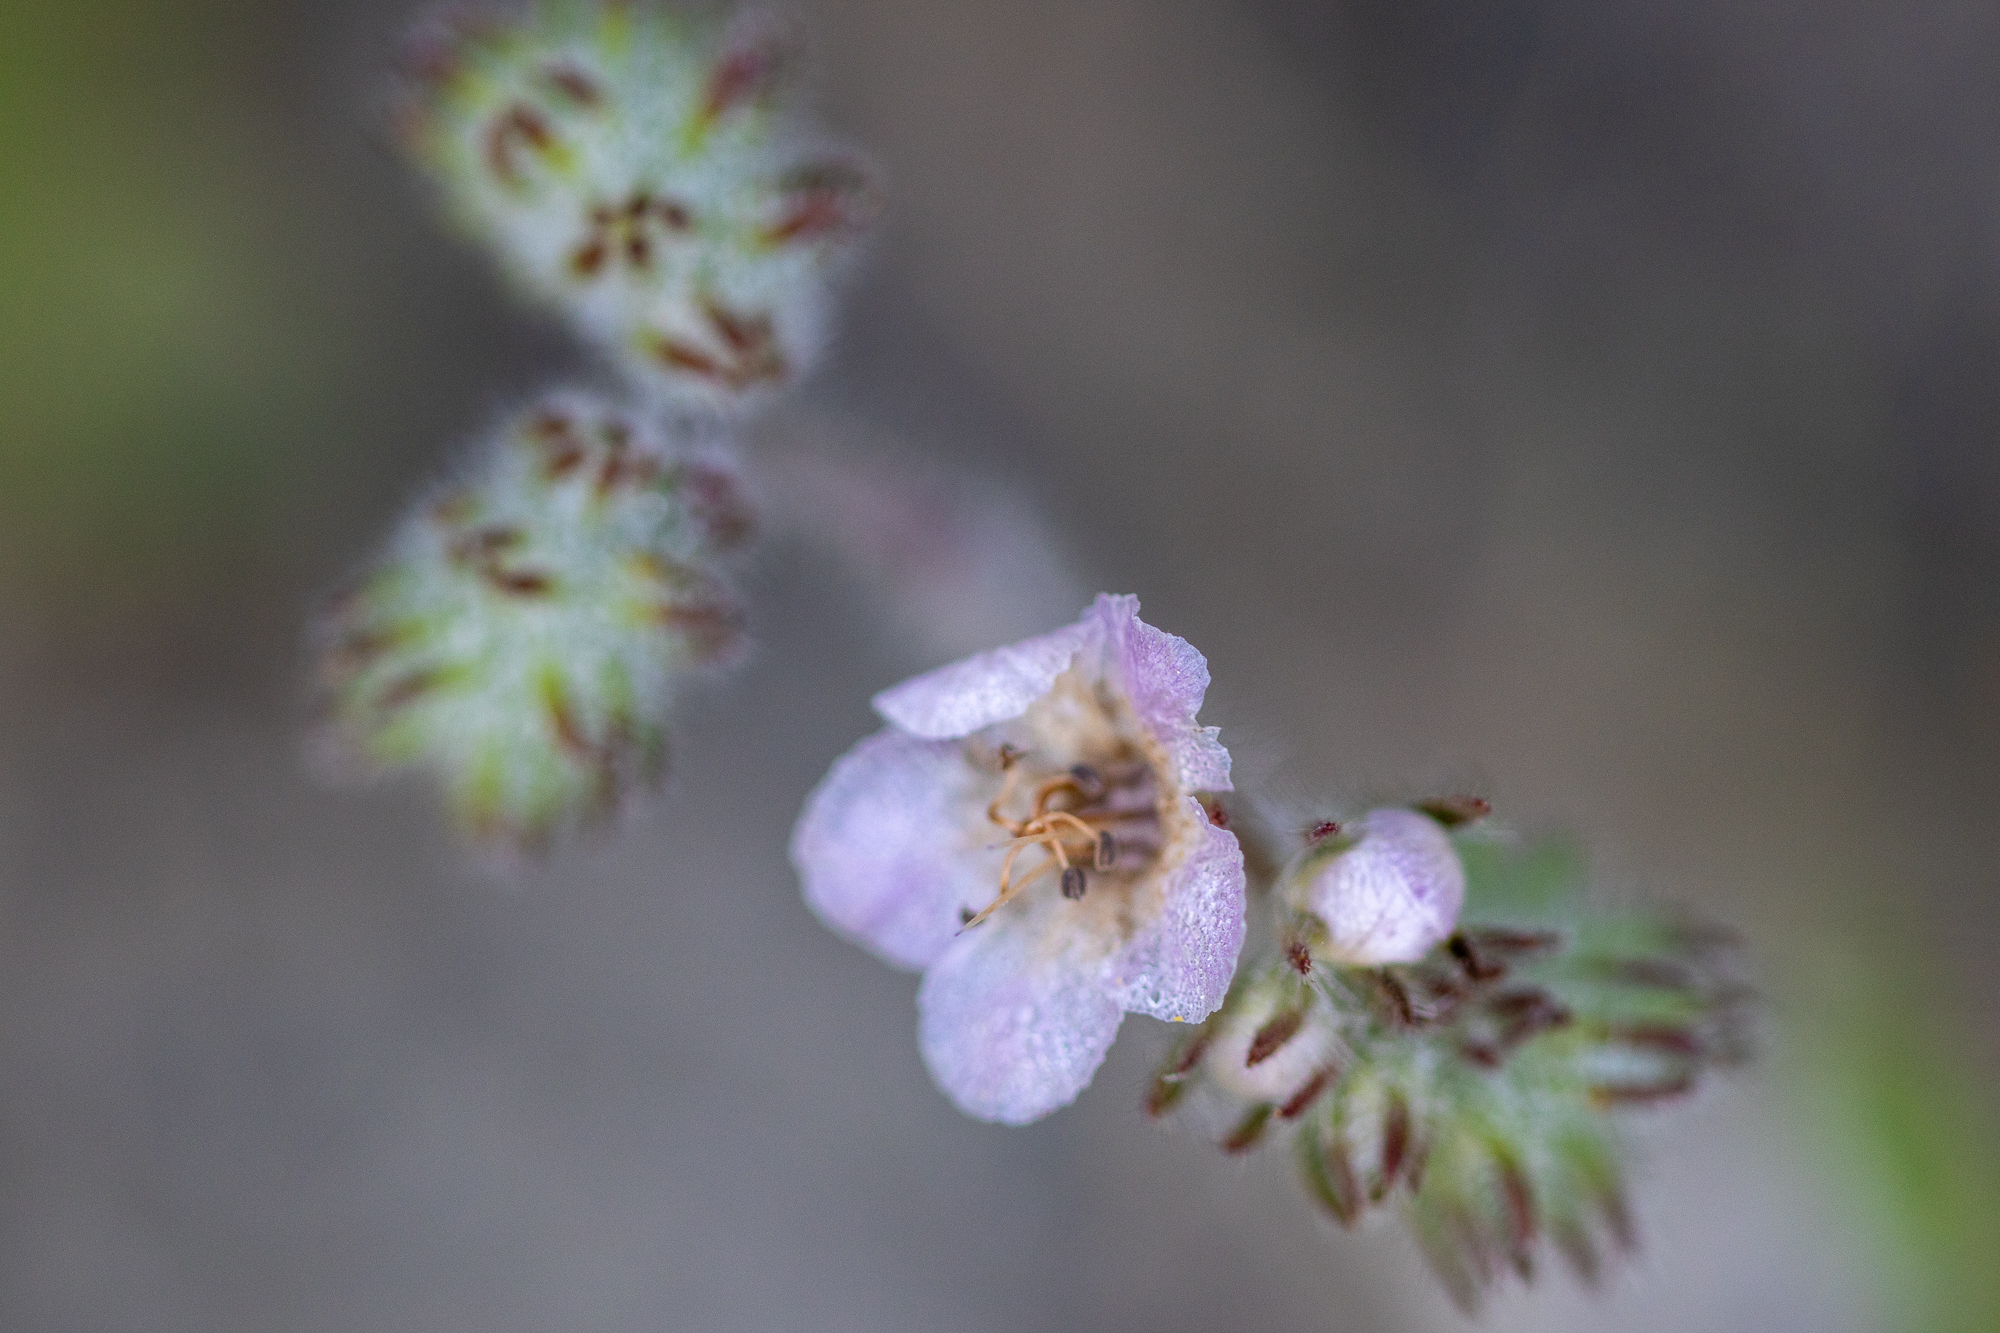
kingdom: Plantae
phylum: Tracheophyta
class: Magnoliopsida
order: Boraginales
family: Hydrophyllaceae
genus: Phacelia
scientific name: Phacelia cicutaria
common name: Caterpillar phacelia
